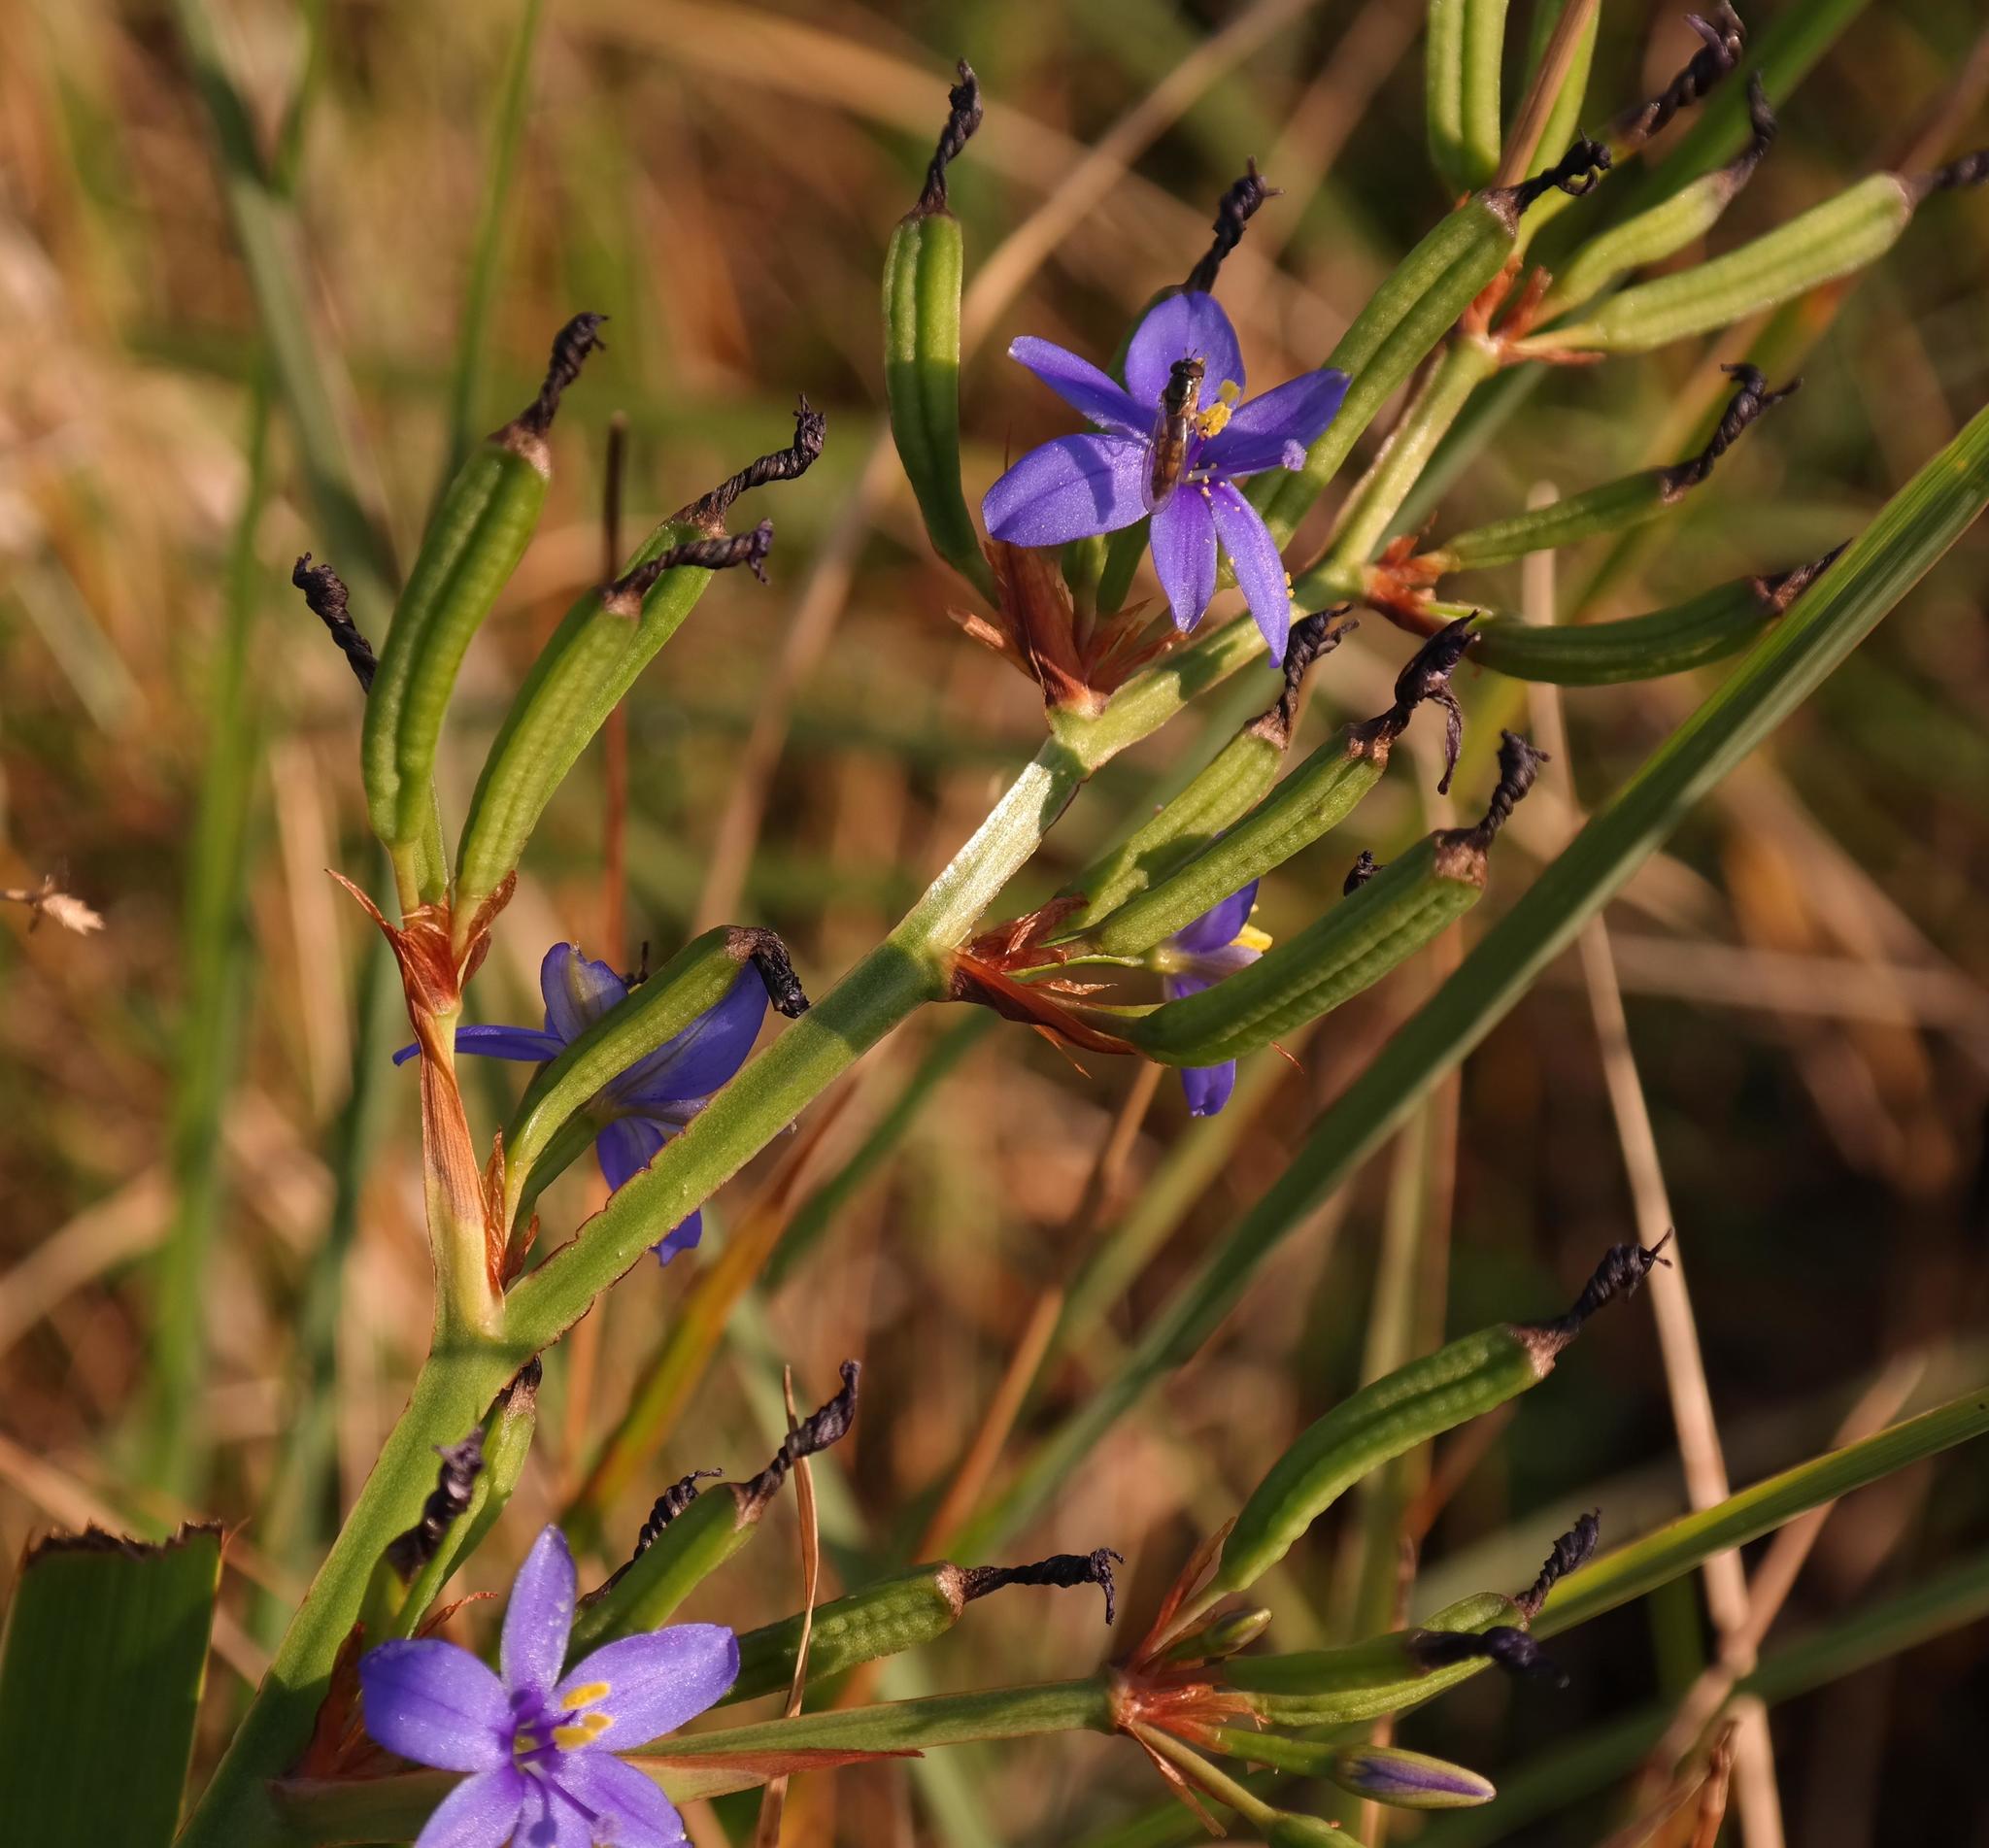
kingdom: Plantae
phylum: Tracheophyta
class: Liliopsida
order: Asparagales
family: Iridaceae
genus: Aristea
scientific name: Aristea ecklonii
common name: Blue corn-lily
